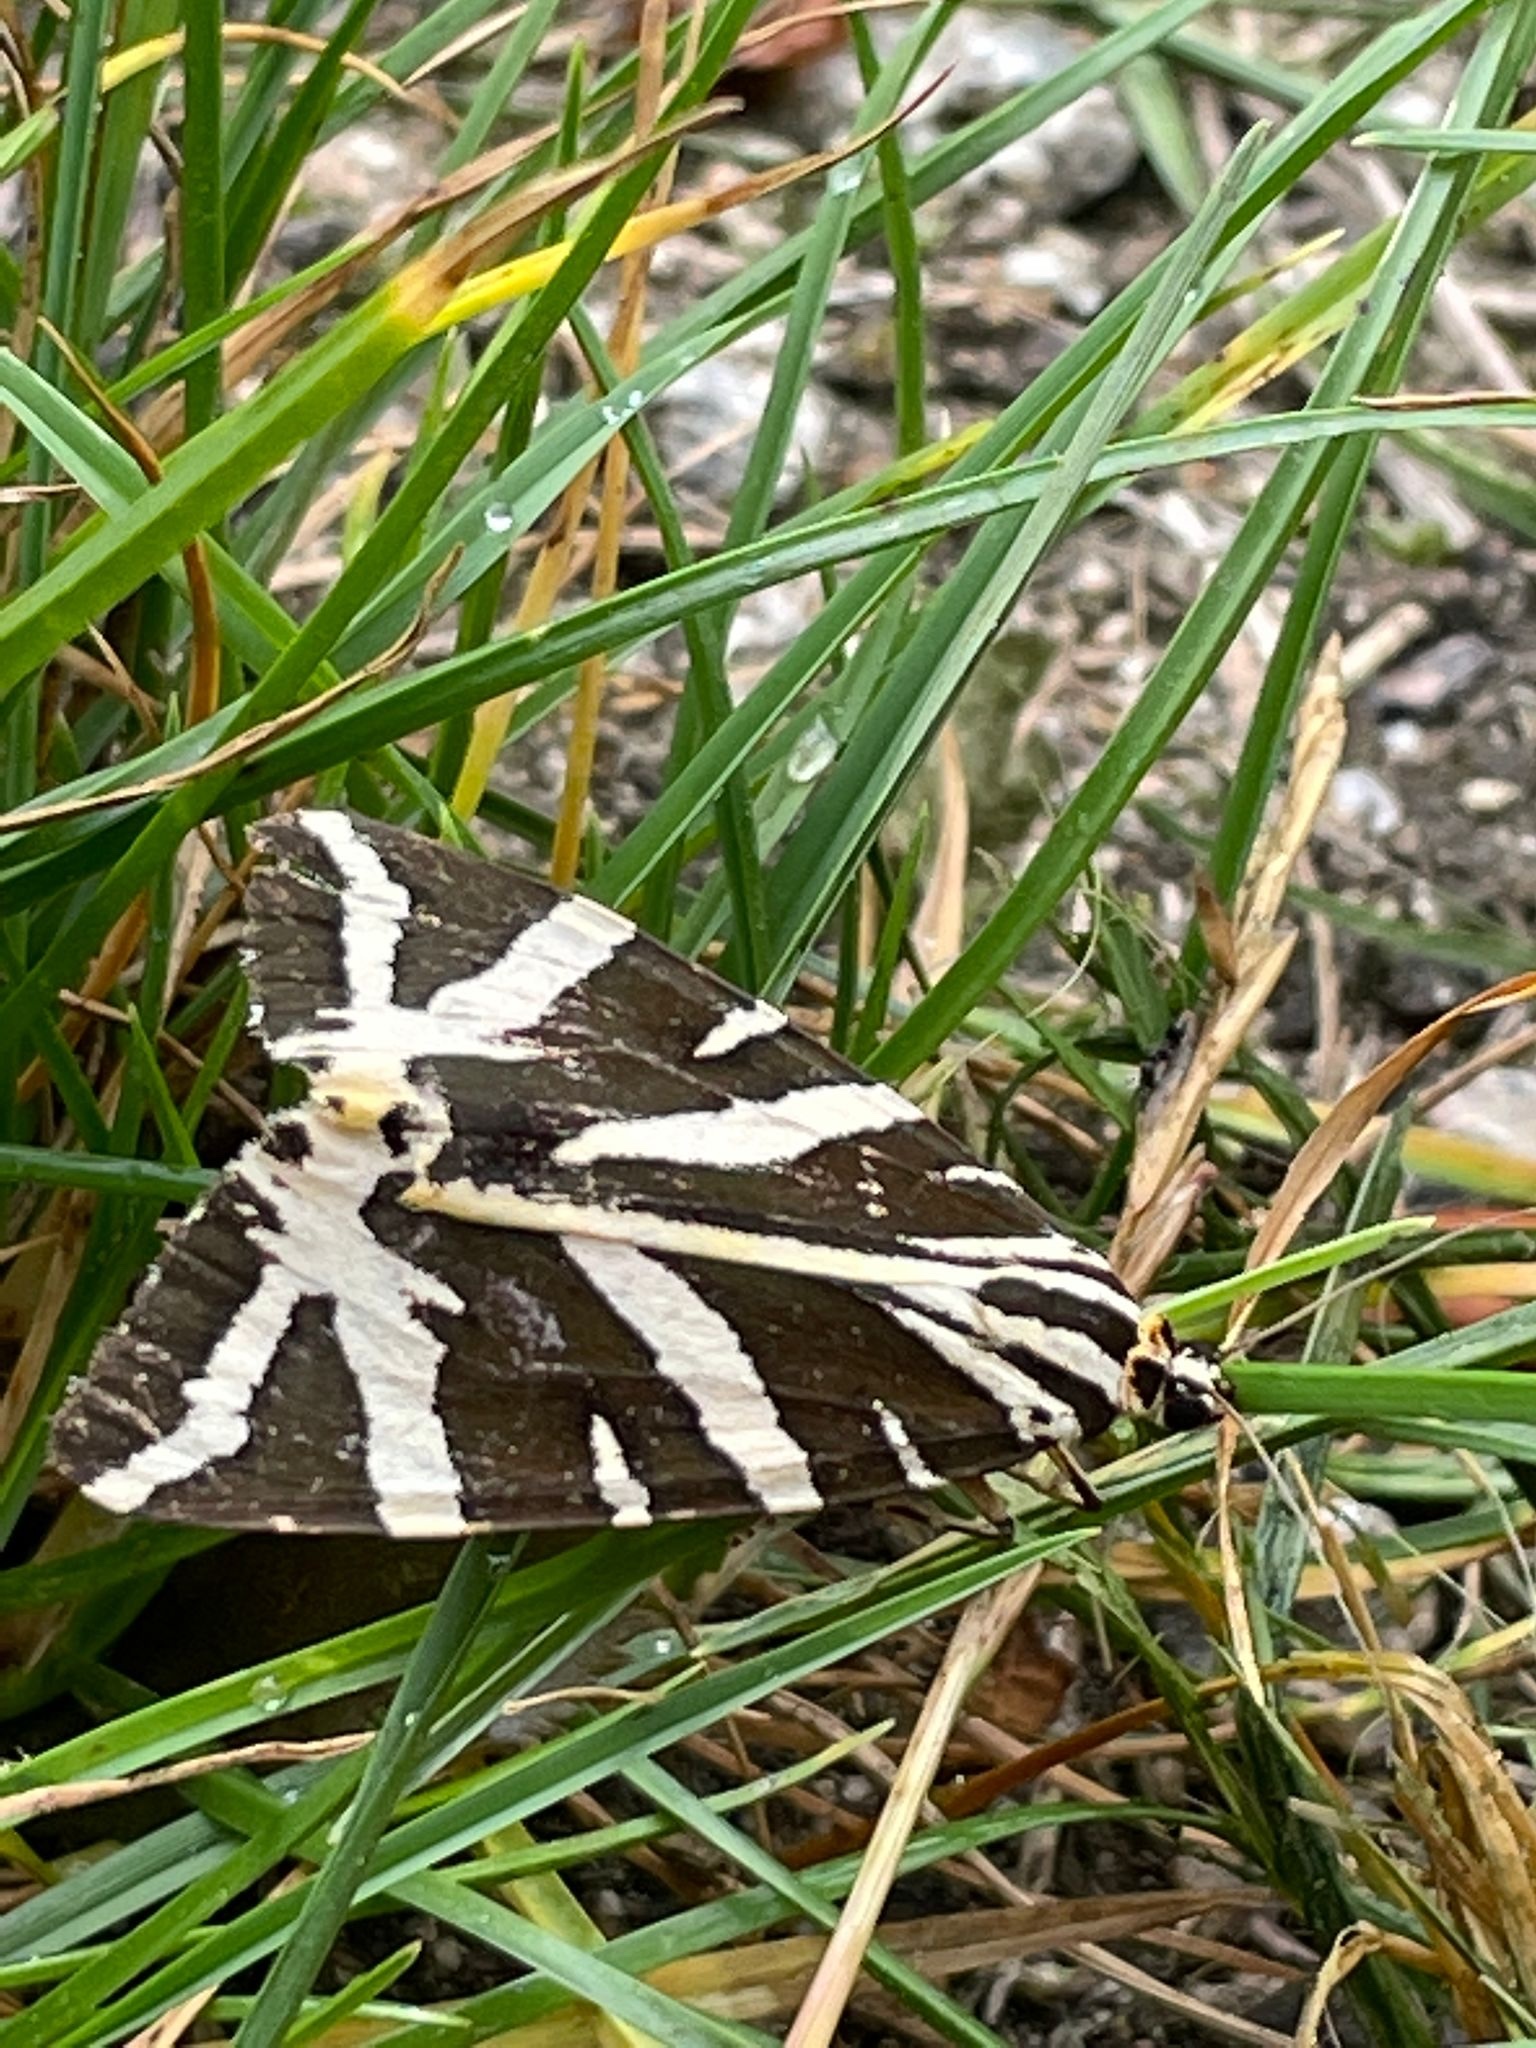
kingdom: Animalia
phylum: Arthropoda
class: Insecta
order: Lepidoptera
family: Erebidae
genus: Euplagia
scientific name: Euplagia quadripunctaria
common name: Jersey tiger
